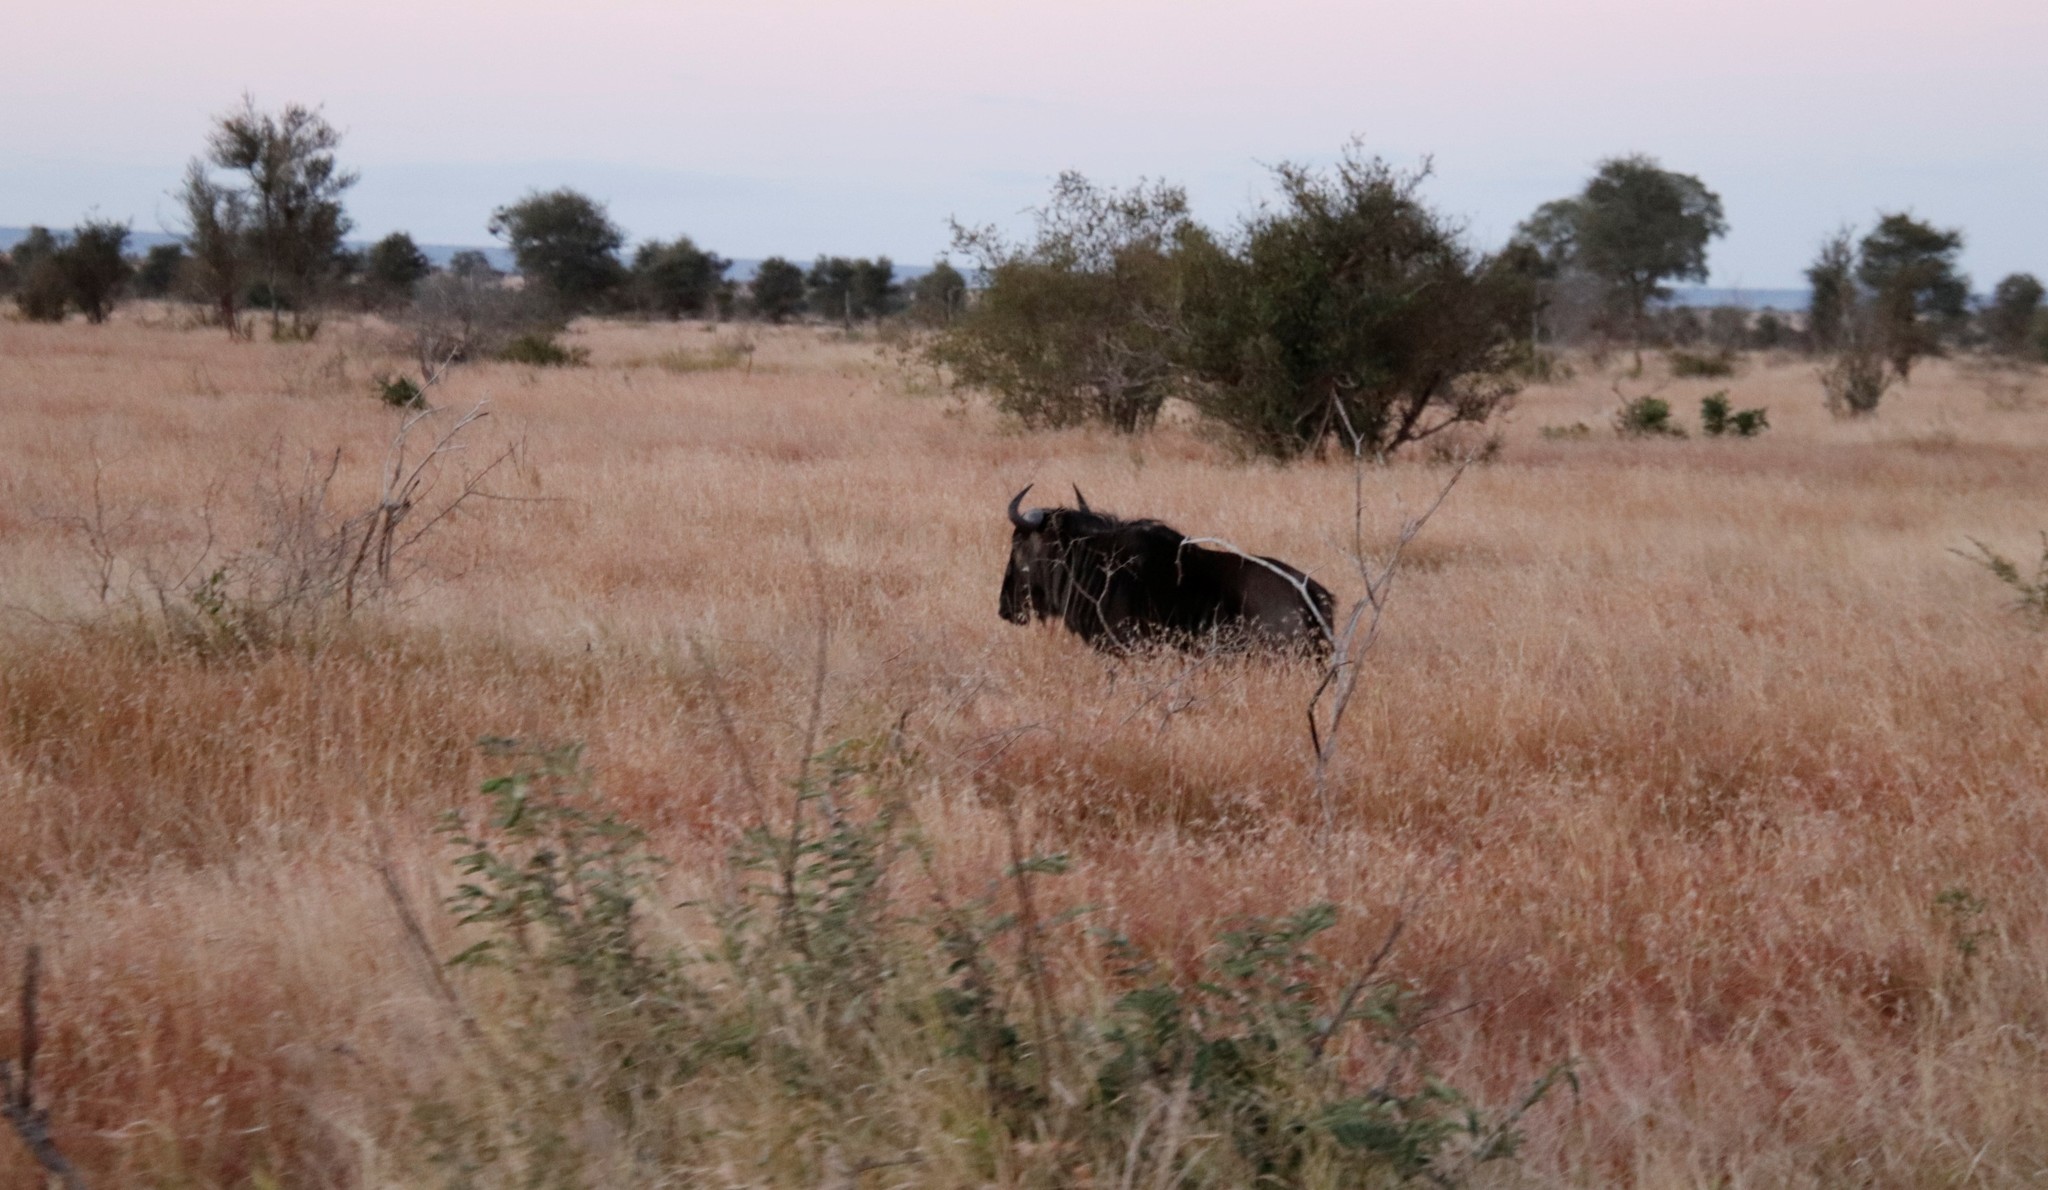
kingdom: Animalia
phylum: Chordata
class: Mammalia
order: Artiodactyla
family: Bovidae
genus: Connochaetes
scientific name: Connochaetes taurinus
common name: Blue wildebeest
